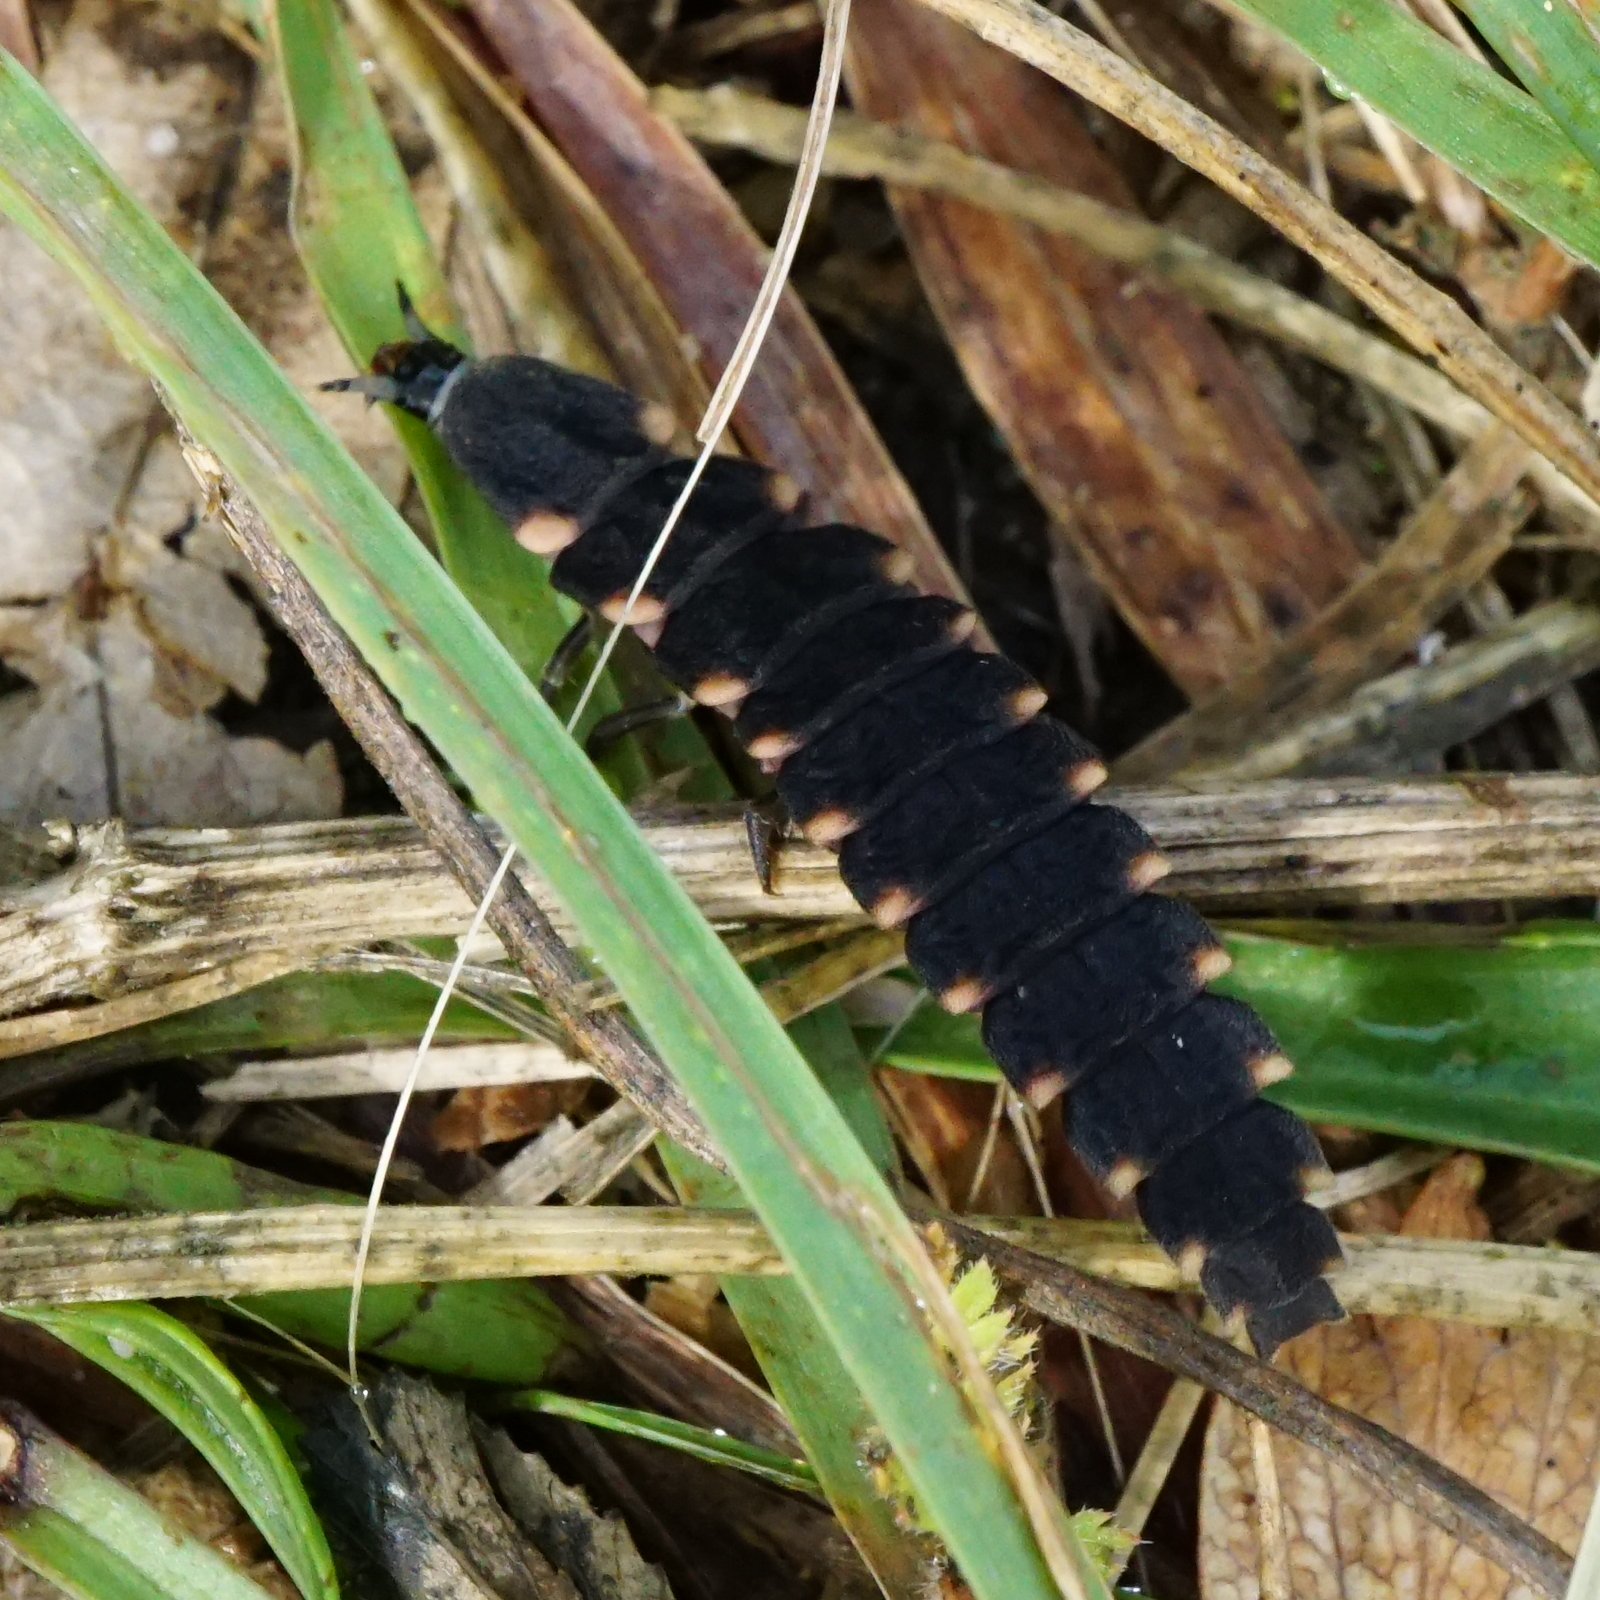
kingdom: Animalia
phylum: Arthropoda
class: Insecta
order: Coleoptera
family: Lampyridae
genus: Lampyris
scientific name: Lampyris noctiluca
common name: Glow-worm
